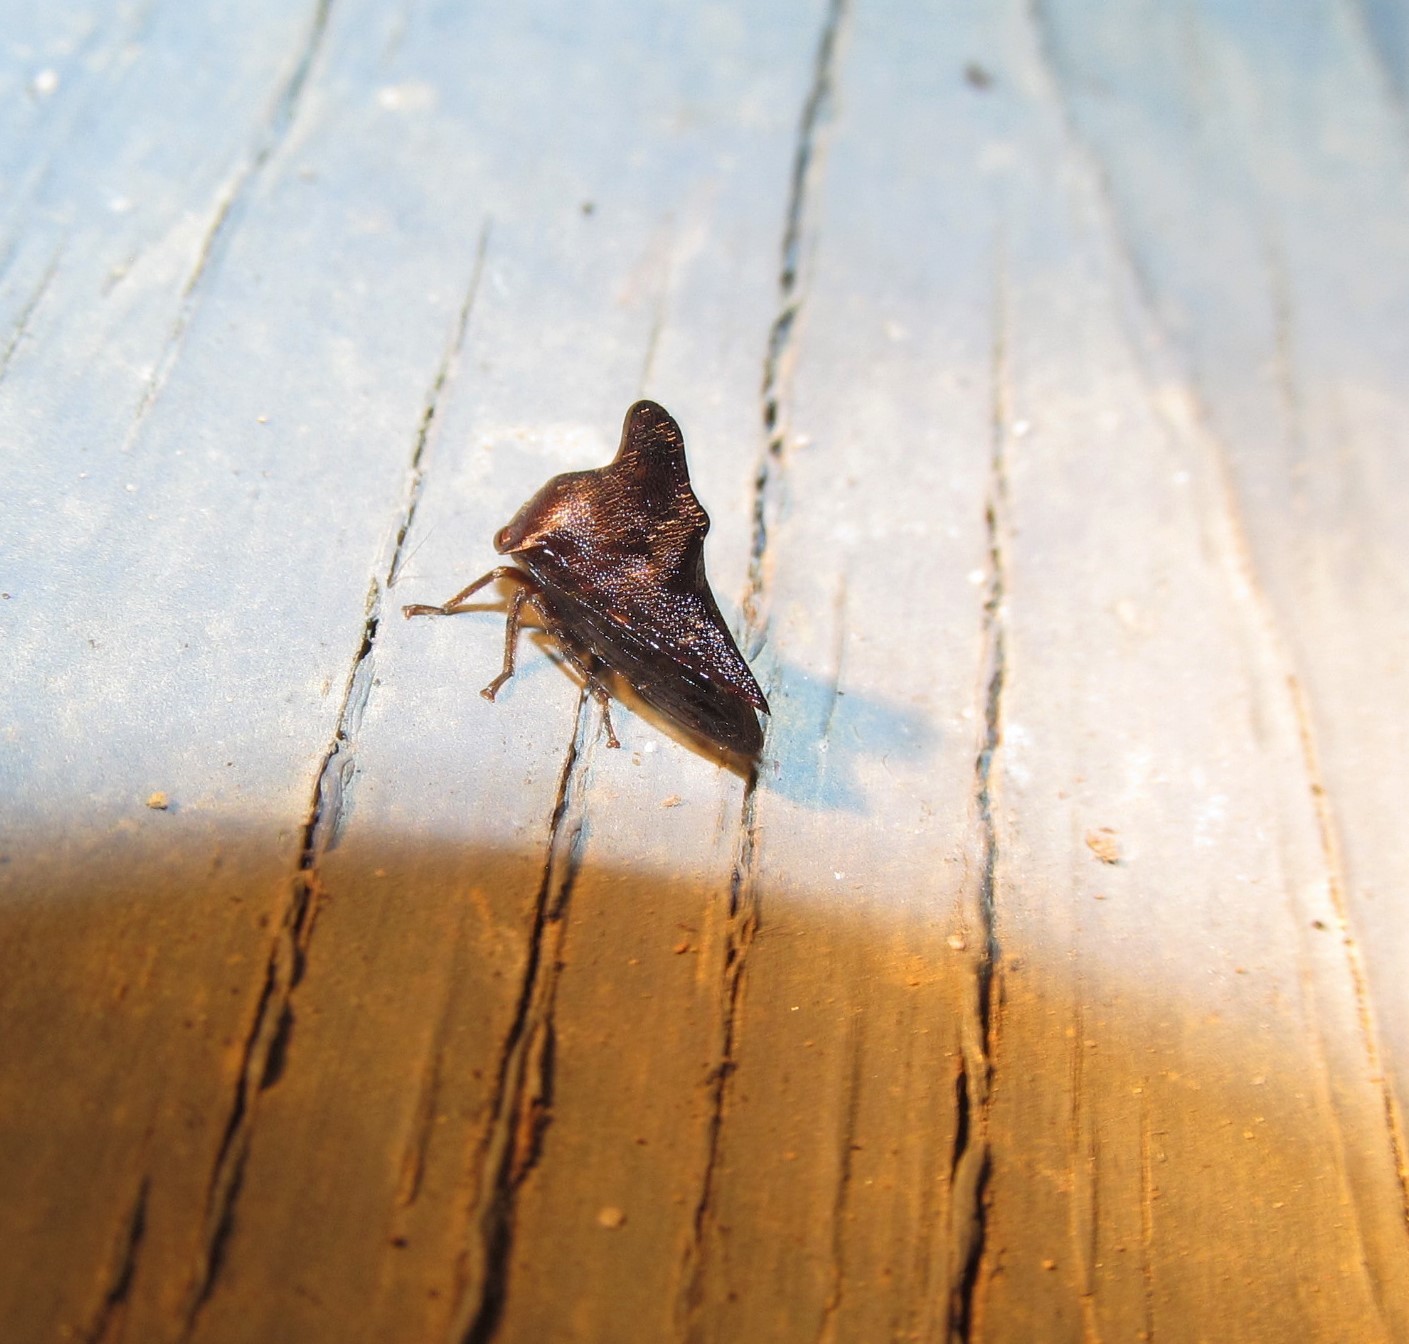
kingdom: Animalia
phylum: Arthropoda
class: Insecta
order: Hemiptera
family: Membracidae
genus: Telamona
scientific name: Telamona projecta
